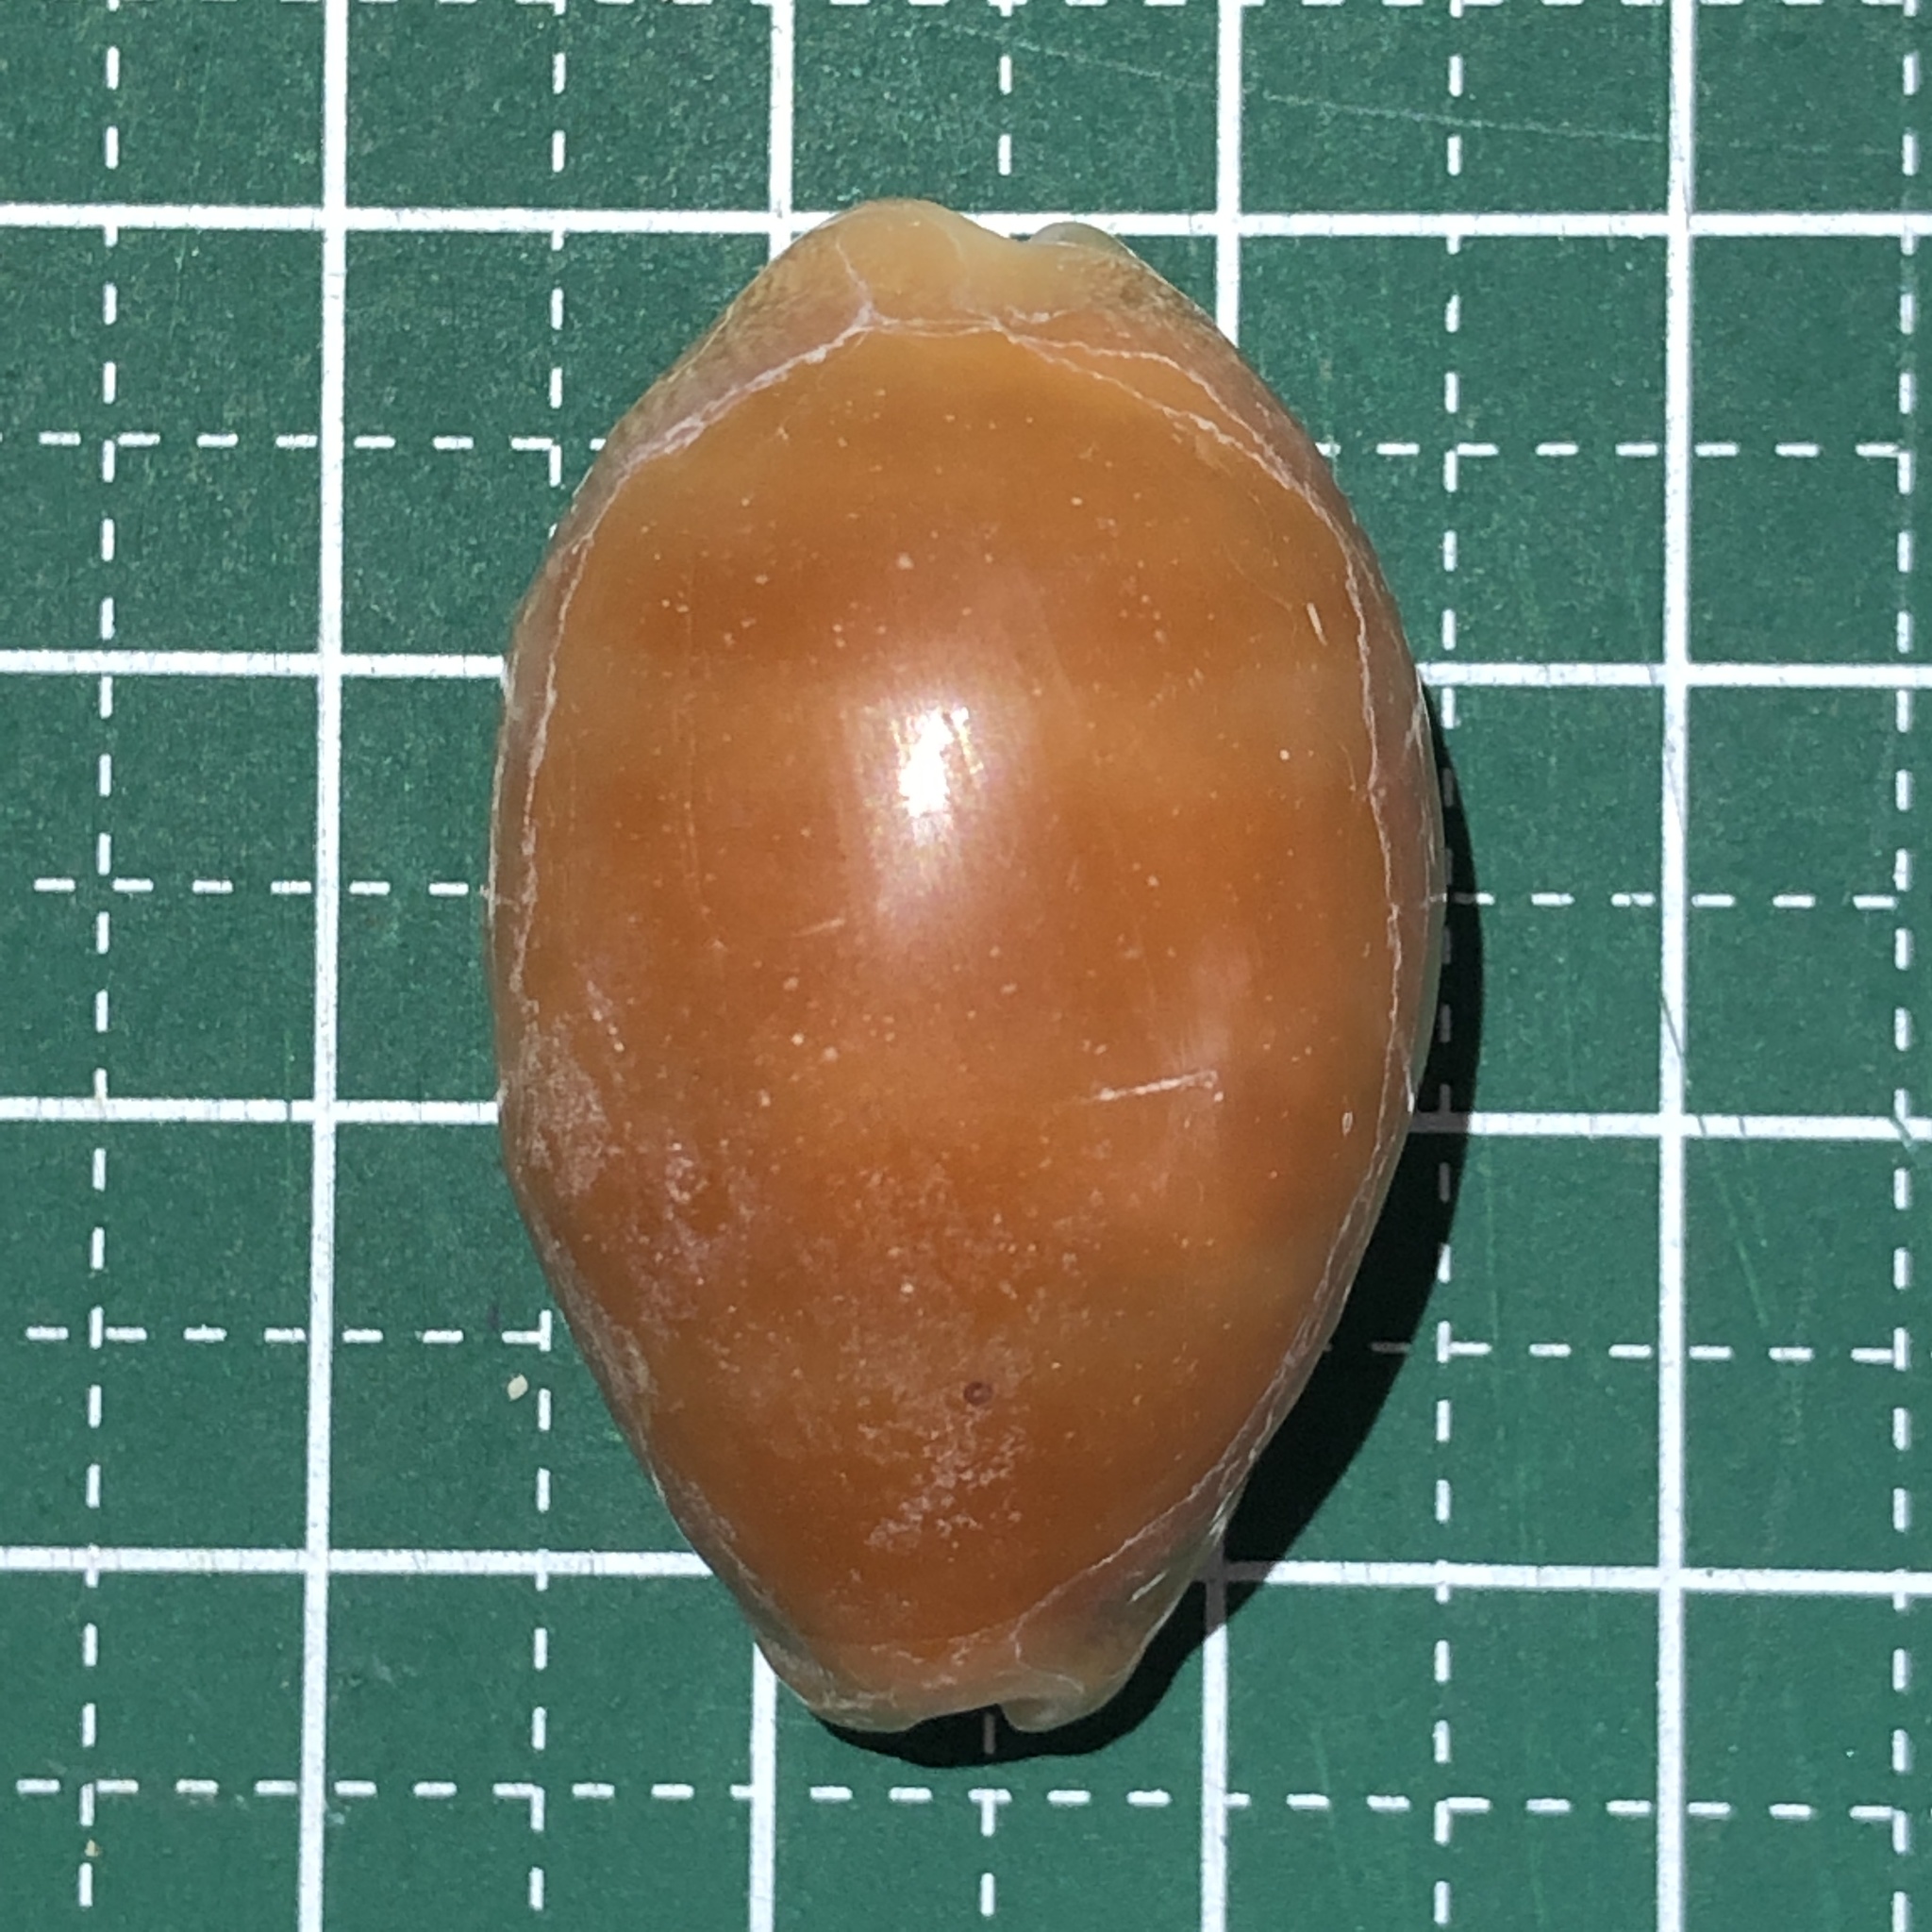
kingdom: Animalia
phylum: Mollusca
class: Gastropoda
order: Littorinimorpha
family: Cypraeidae
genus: Lyncina
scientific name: Lyncina carneola
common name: Purple-mouthed cowry
